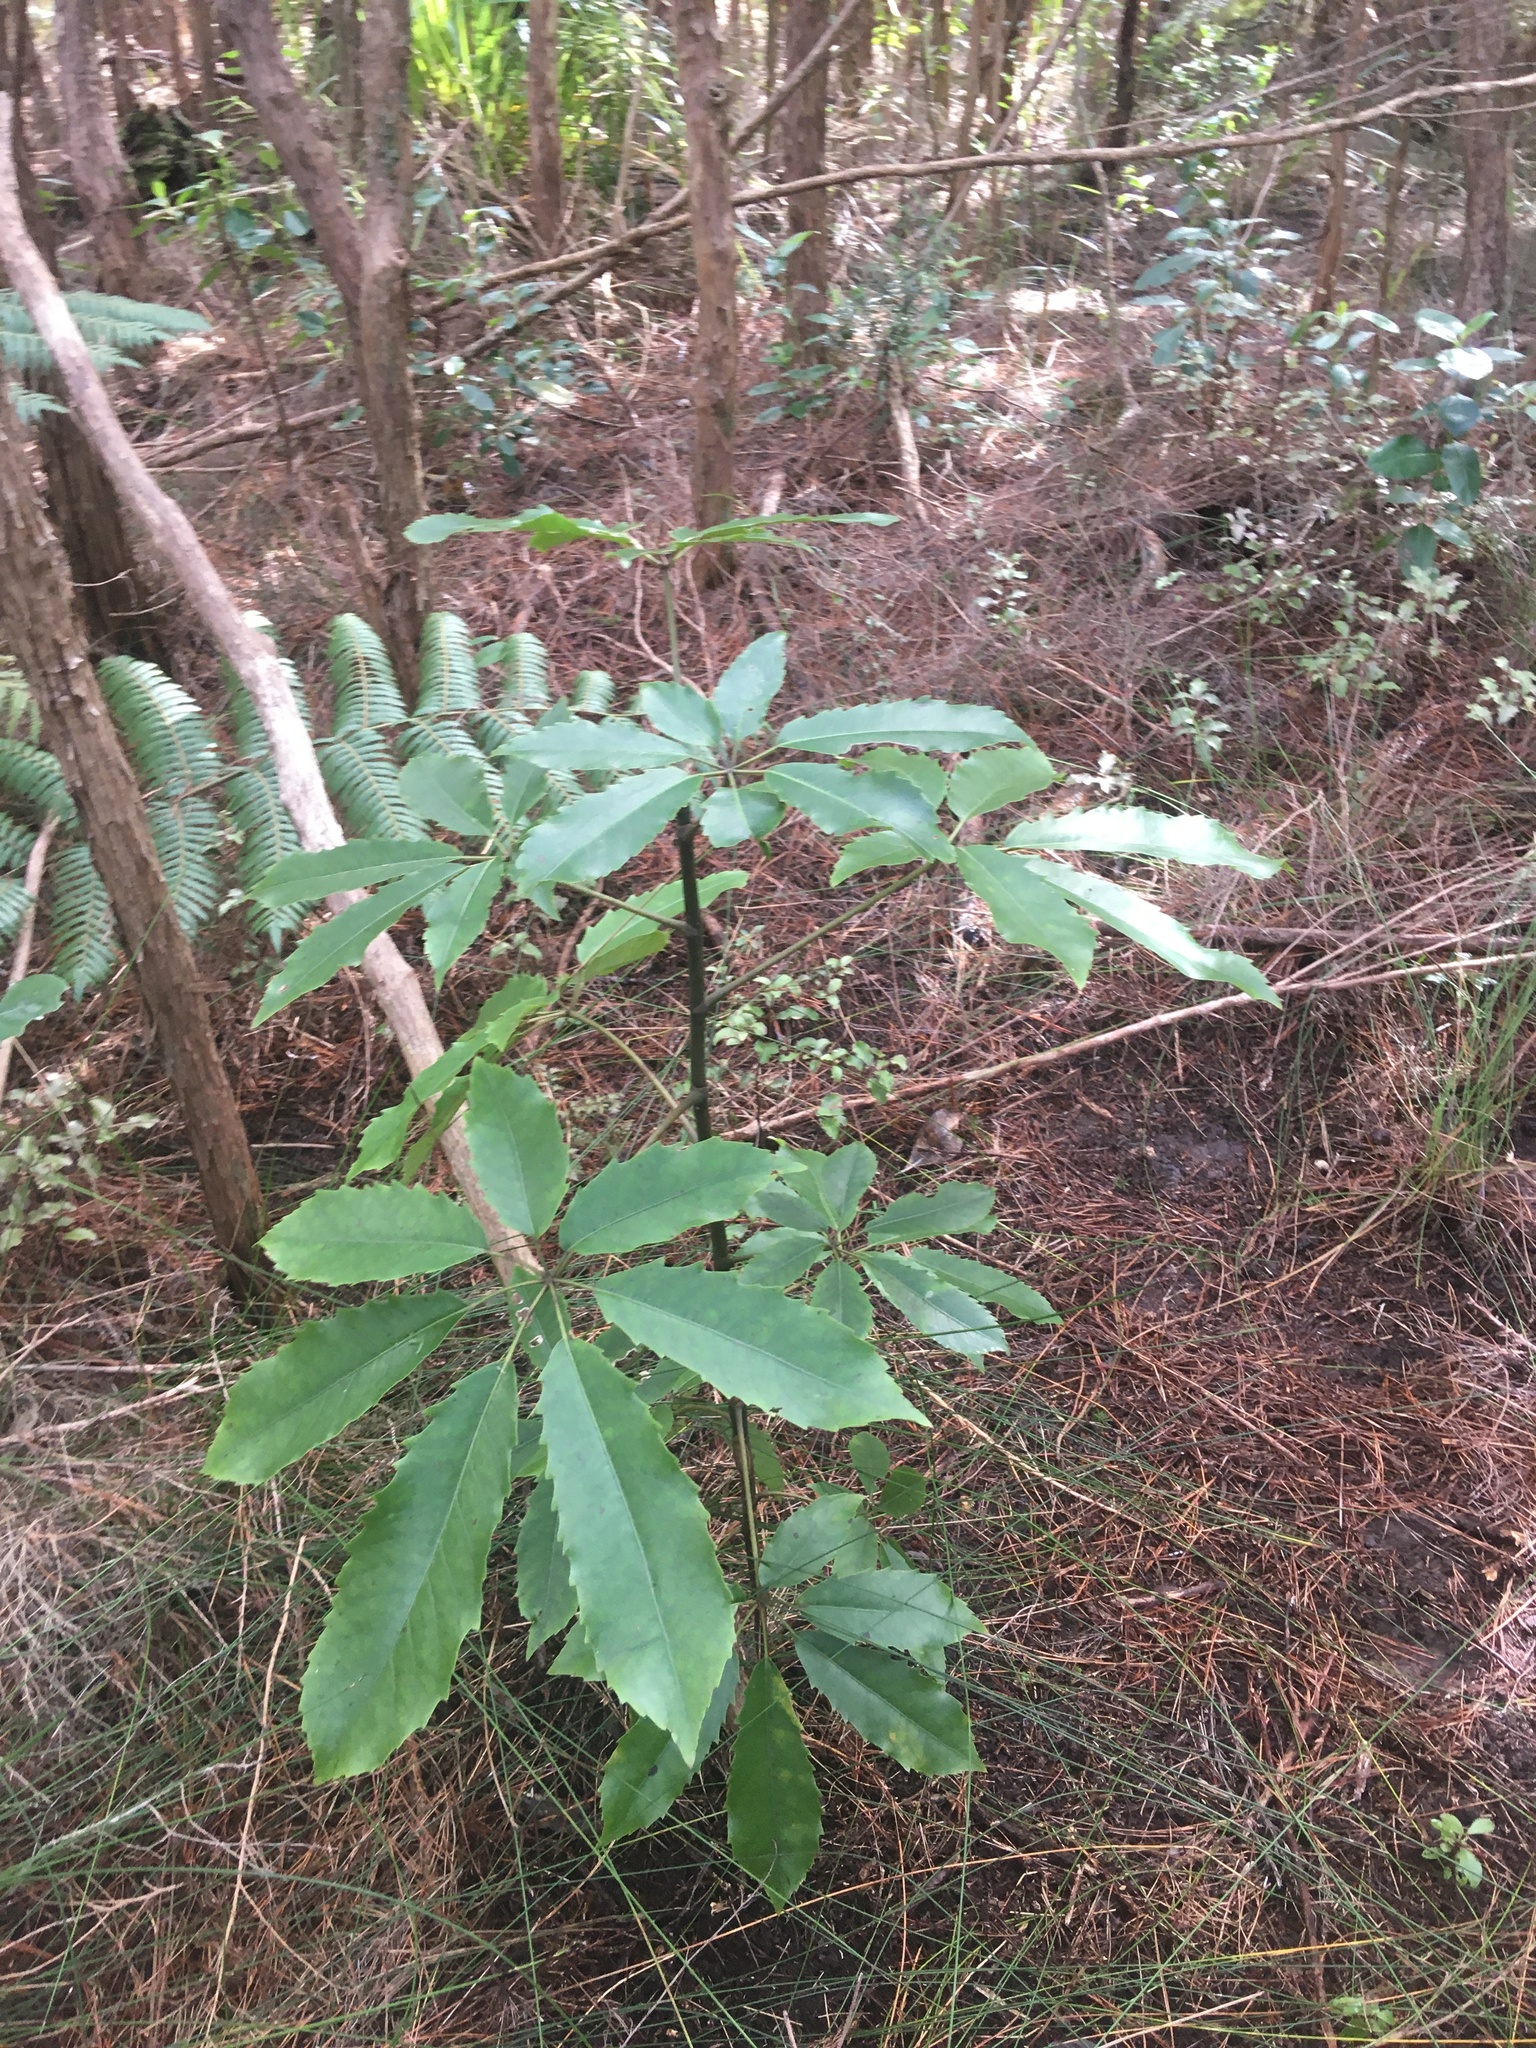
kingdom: Plantae
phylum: Tracheophyta
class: Magnoliopsida
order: Apiales
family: Araliaceae
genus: Neopanax
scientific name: Neopanax arboreus
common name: Five-fingers
